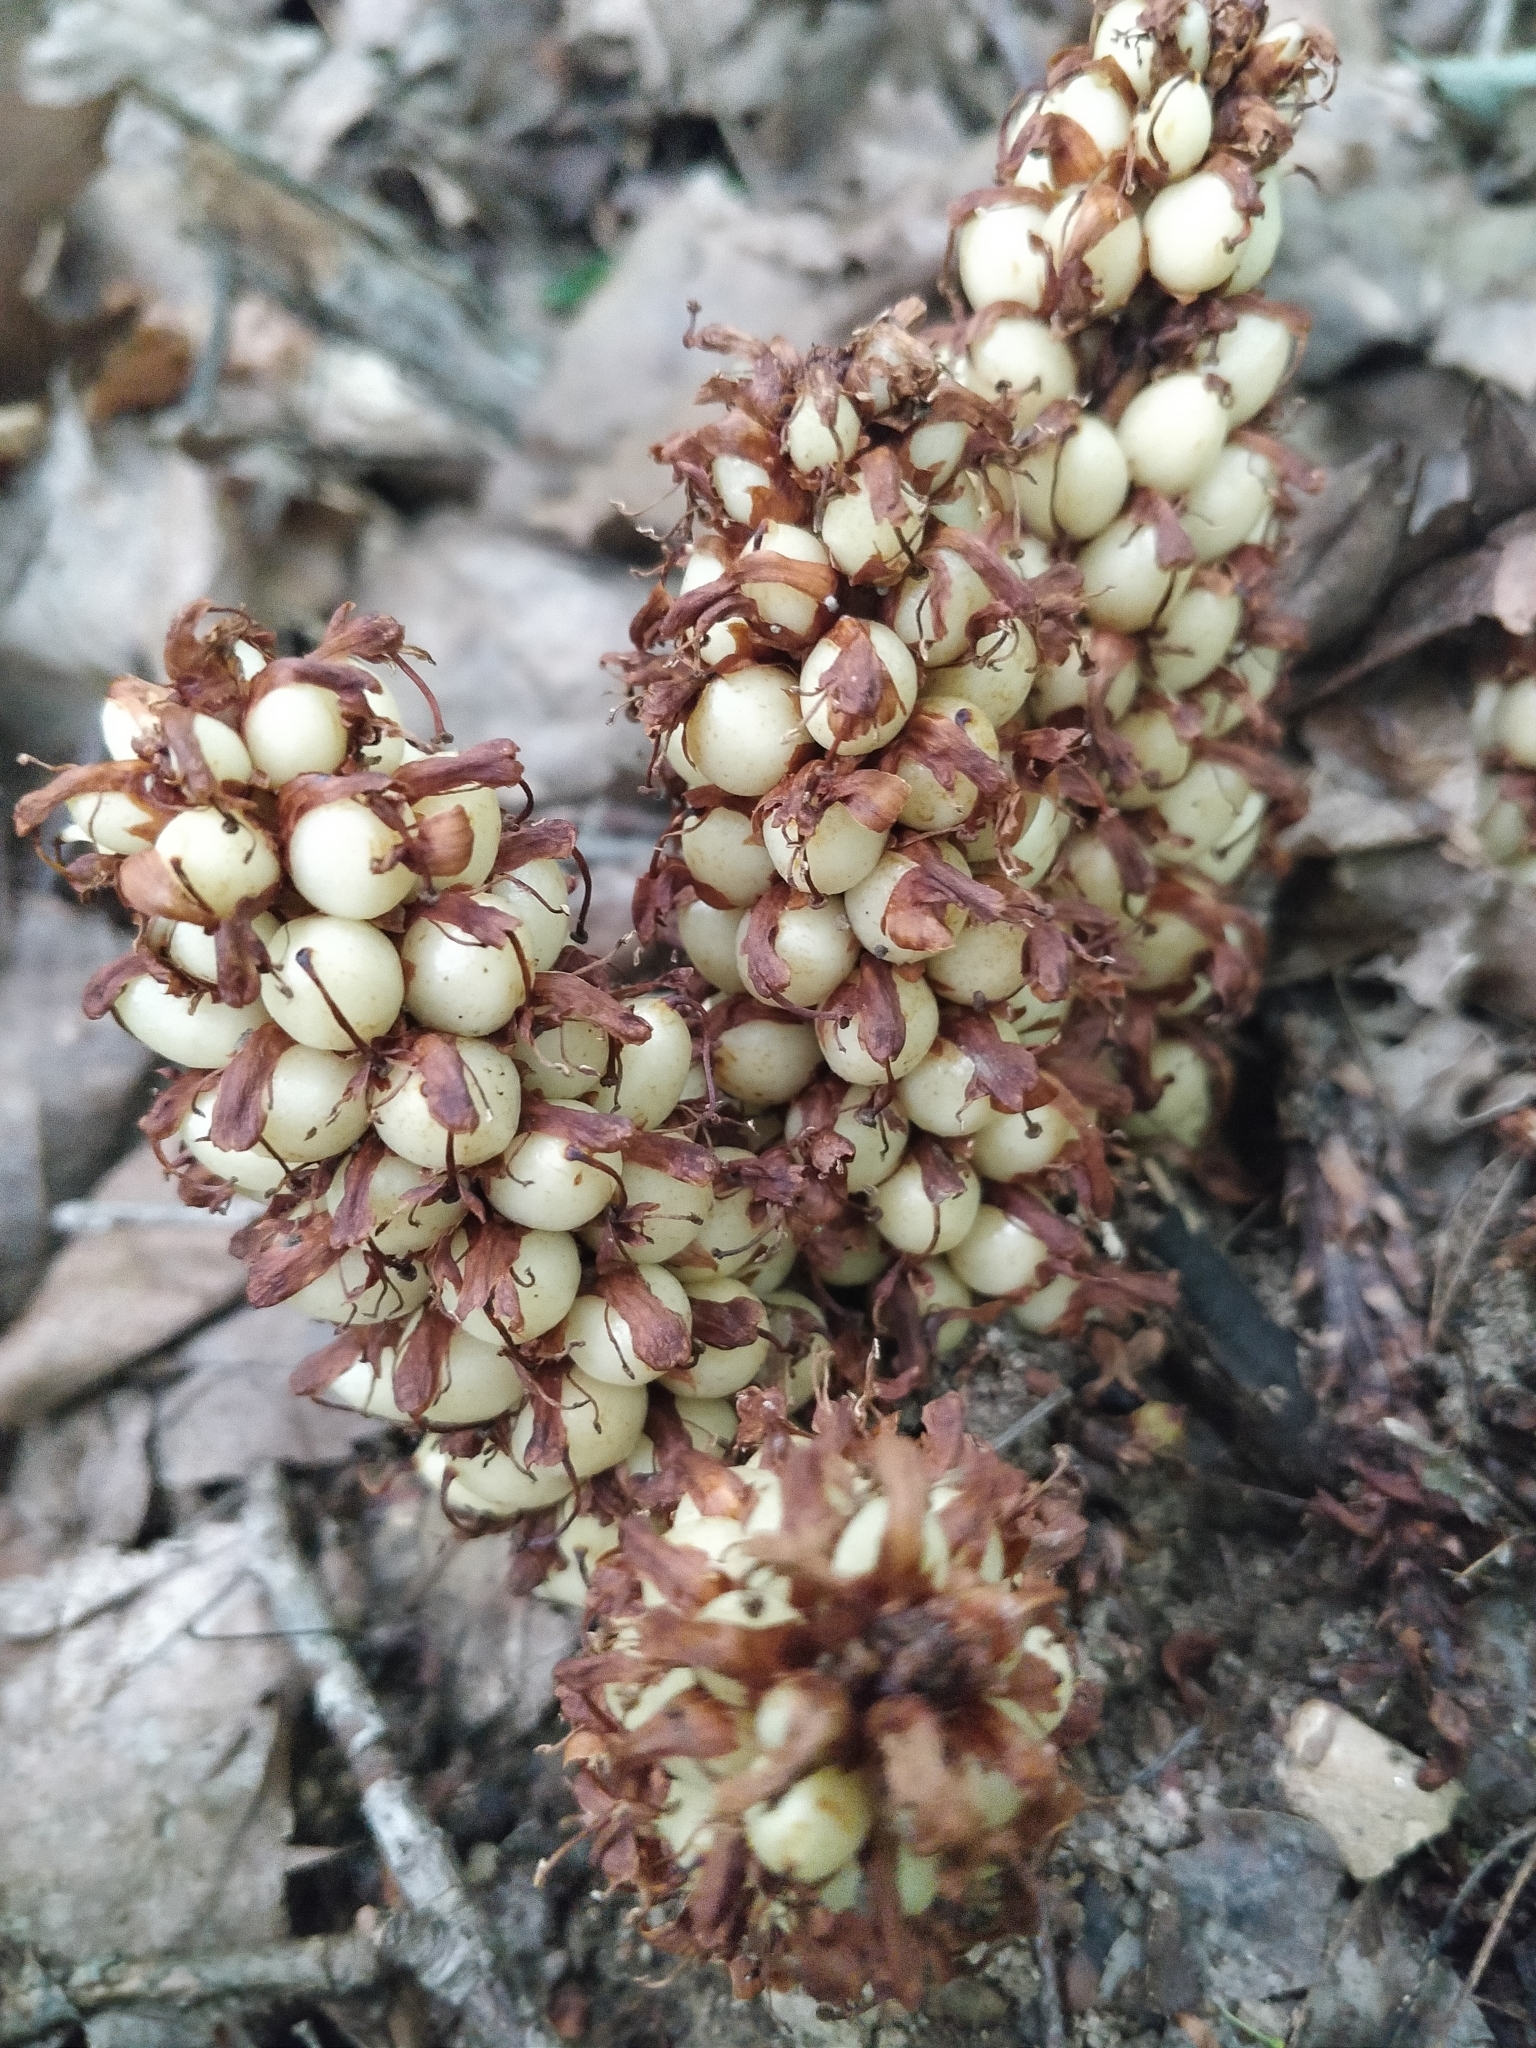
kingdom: Plantae
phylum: Tracheophyta
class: Magnoliopsida
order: Lamiales
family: Orobanchaceae
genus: Conopholis
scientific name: Conopholis americana
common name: American cancer-root
